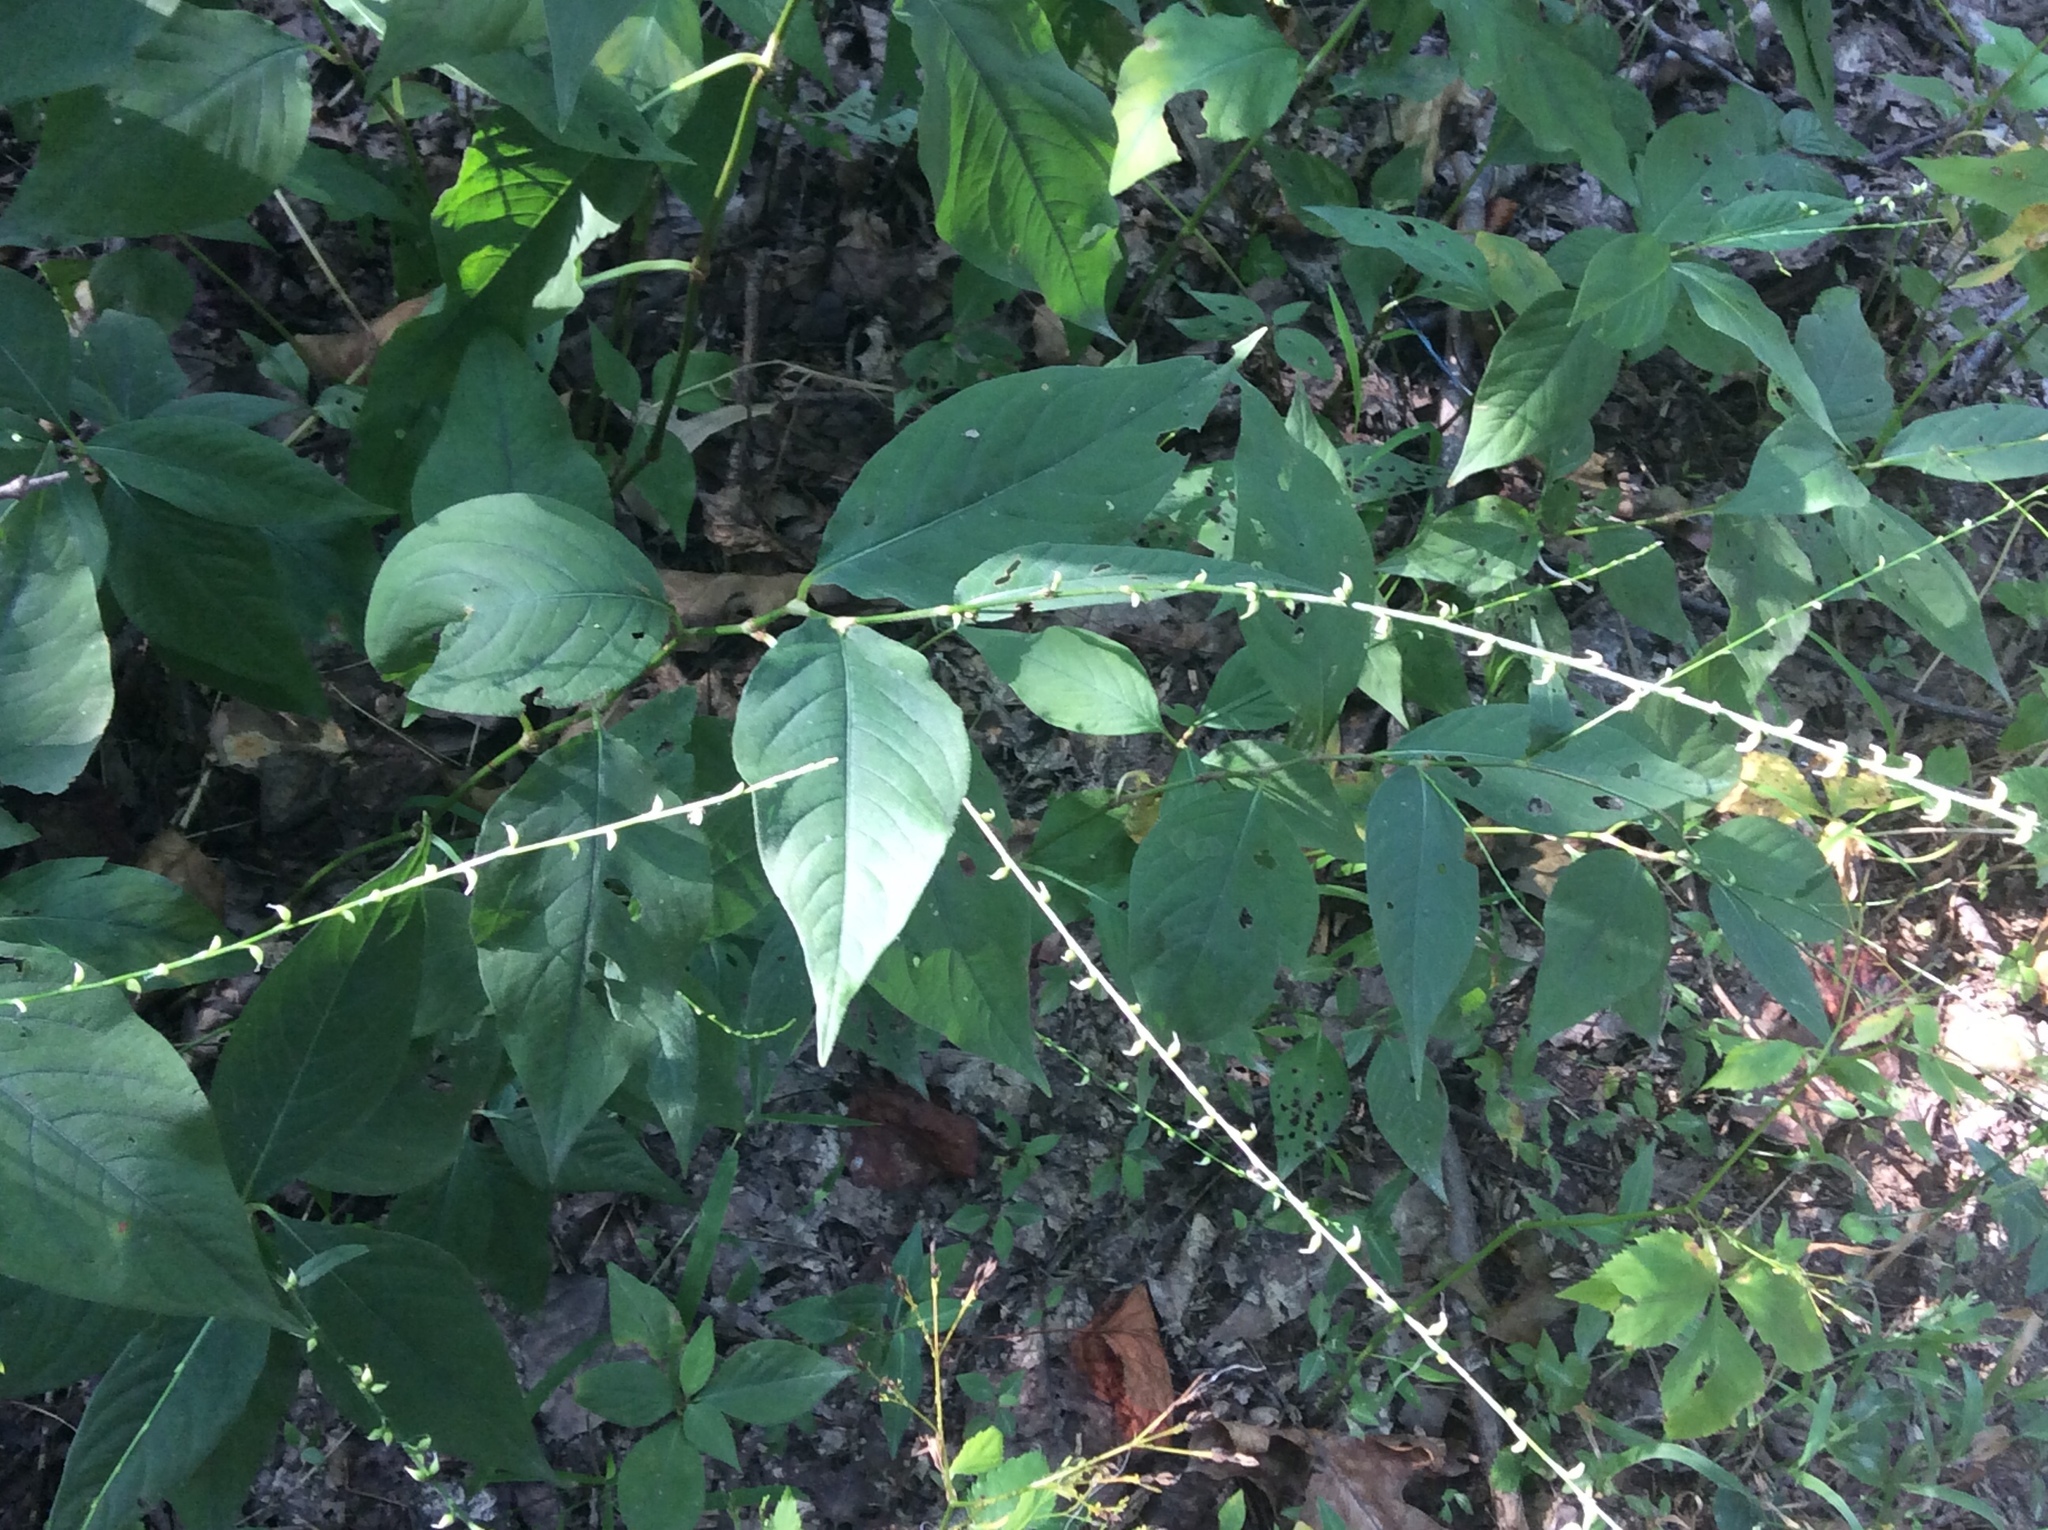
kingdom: Plantae
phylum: Tracheophyta
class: Magnoliopsida
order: Caryophyllales
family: Polygonaceae
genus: Persicaria
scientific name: Persicaria virginiana
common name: Jumpseed
